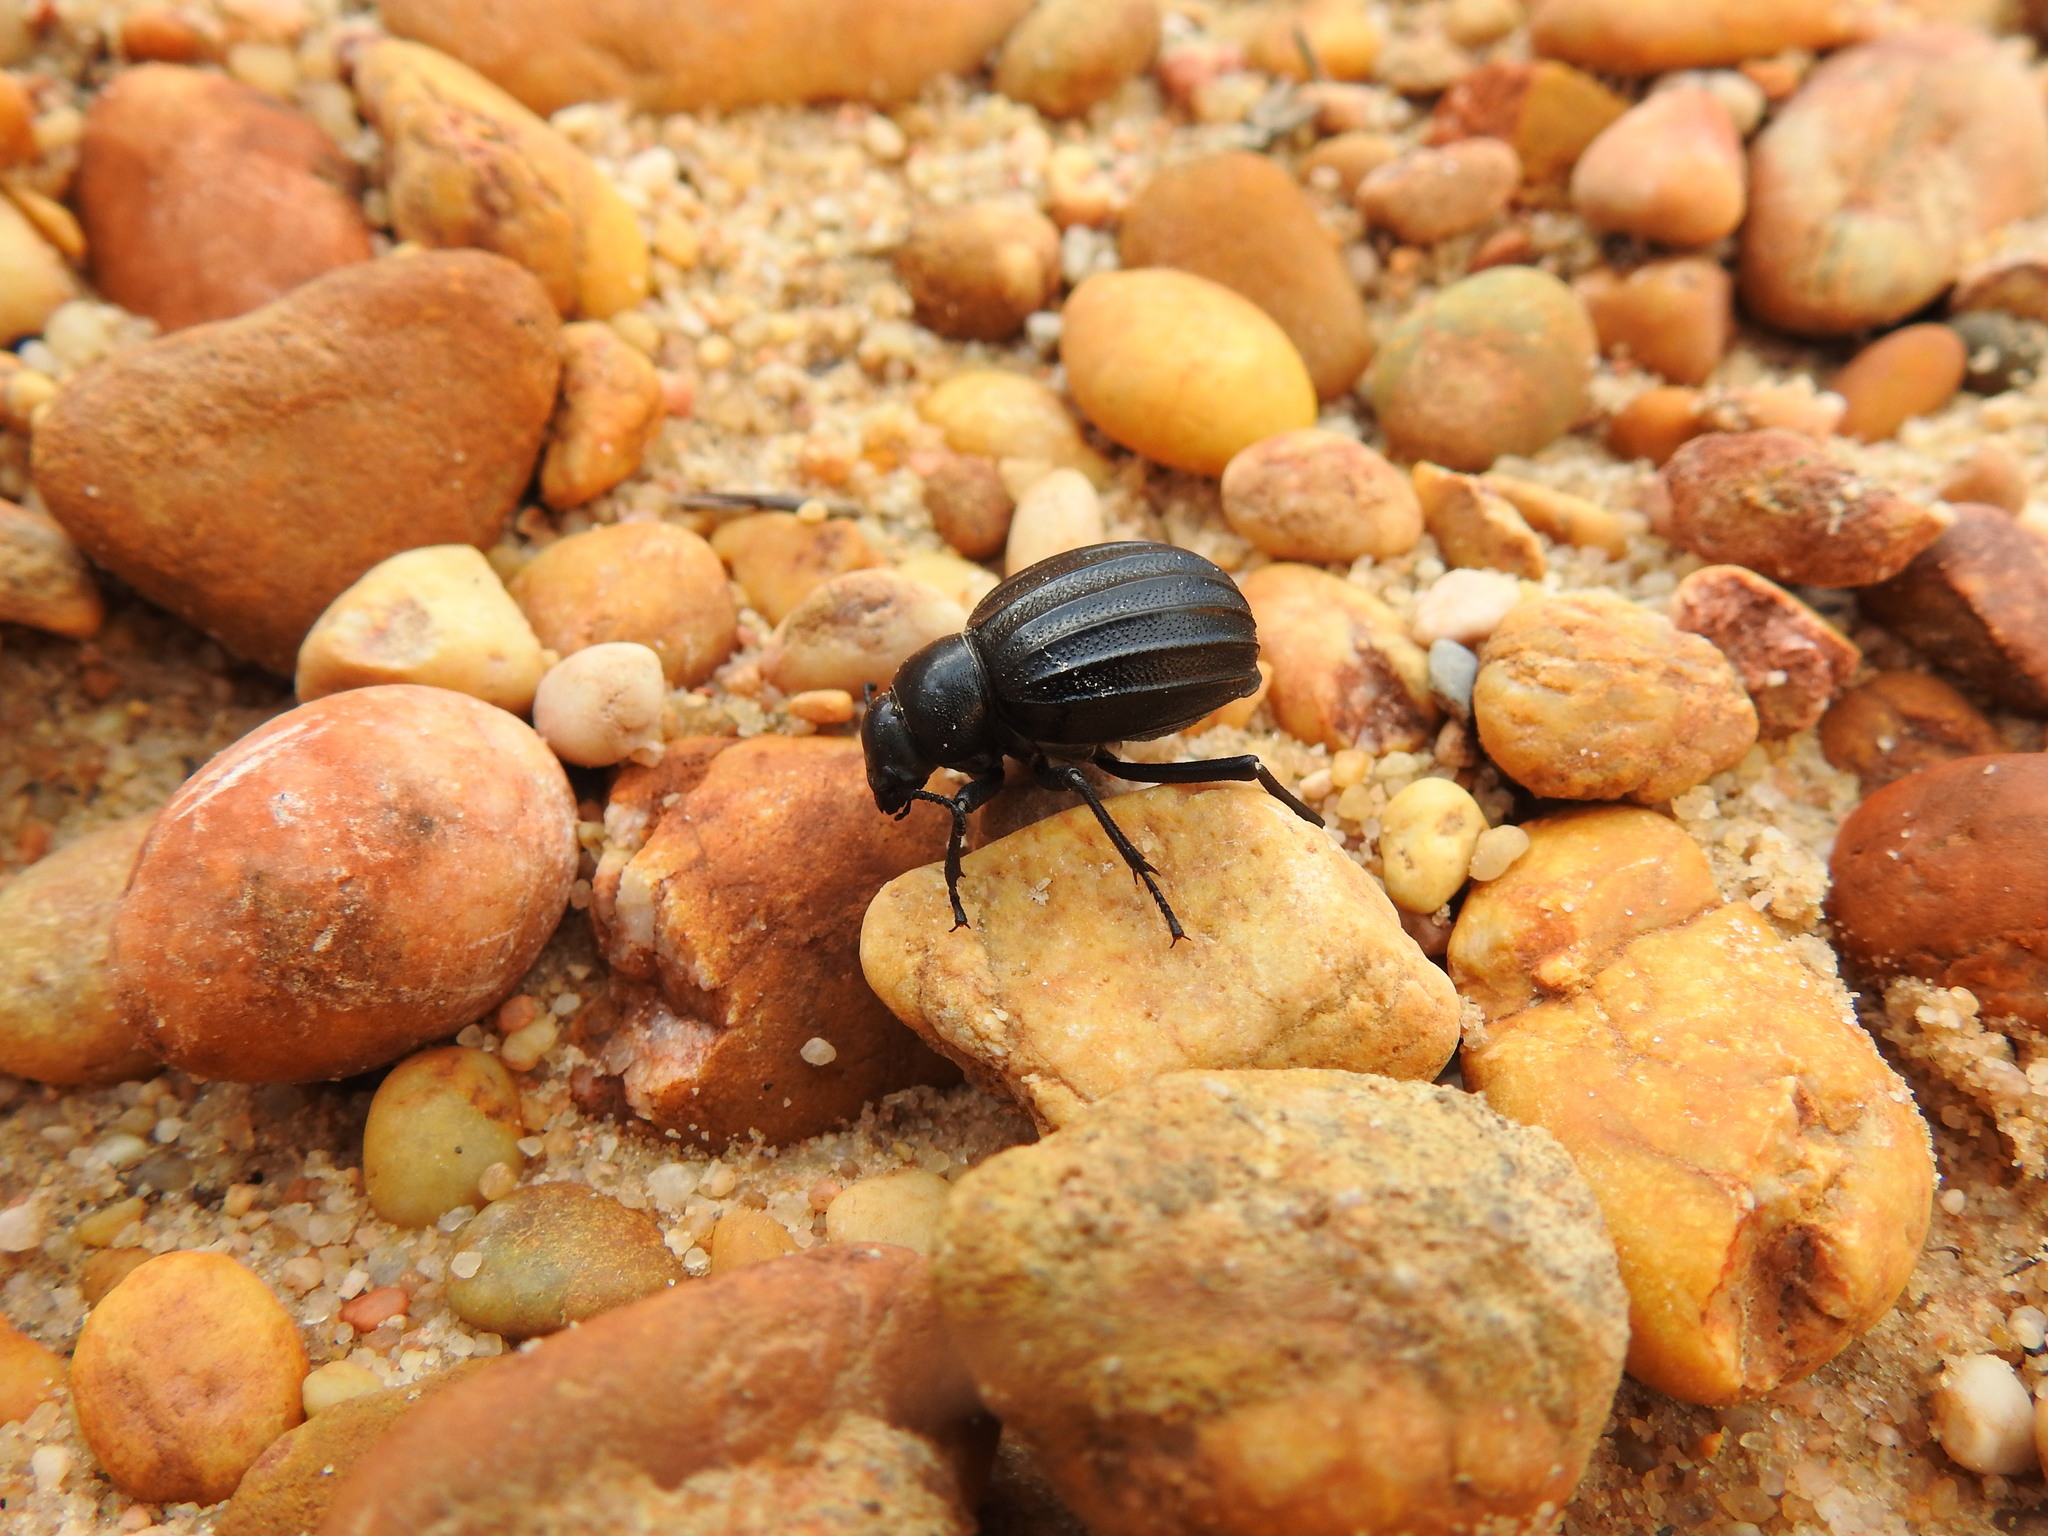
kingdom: Animalia
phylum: Arthropoda
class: Insecta
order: Coleoptera
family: Tenebrionidae
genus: Pimelia
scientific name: Pimelia costata
